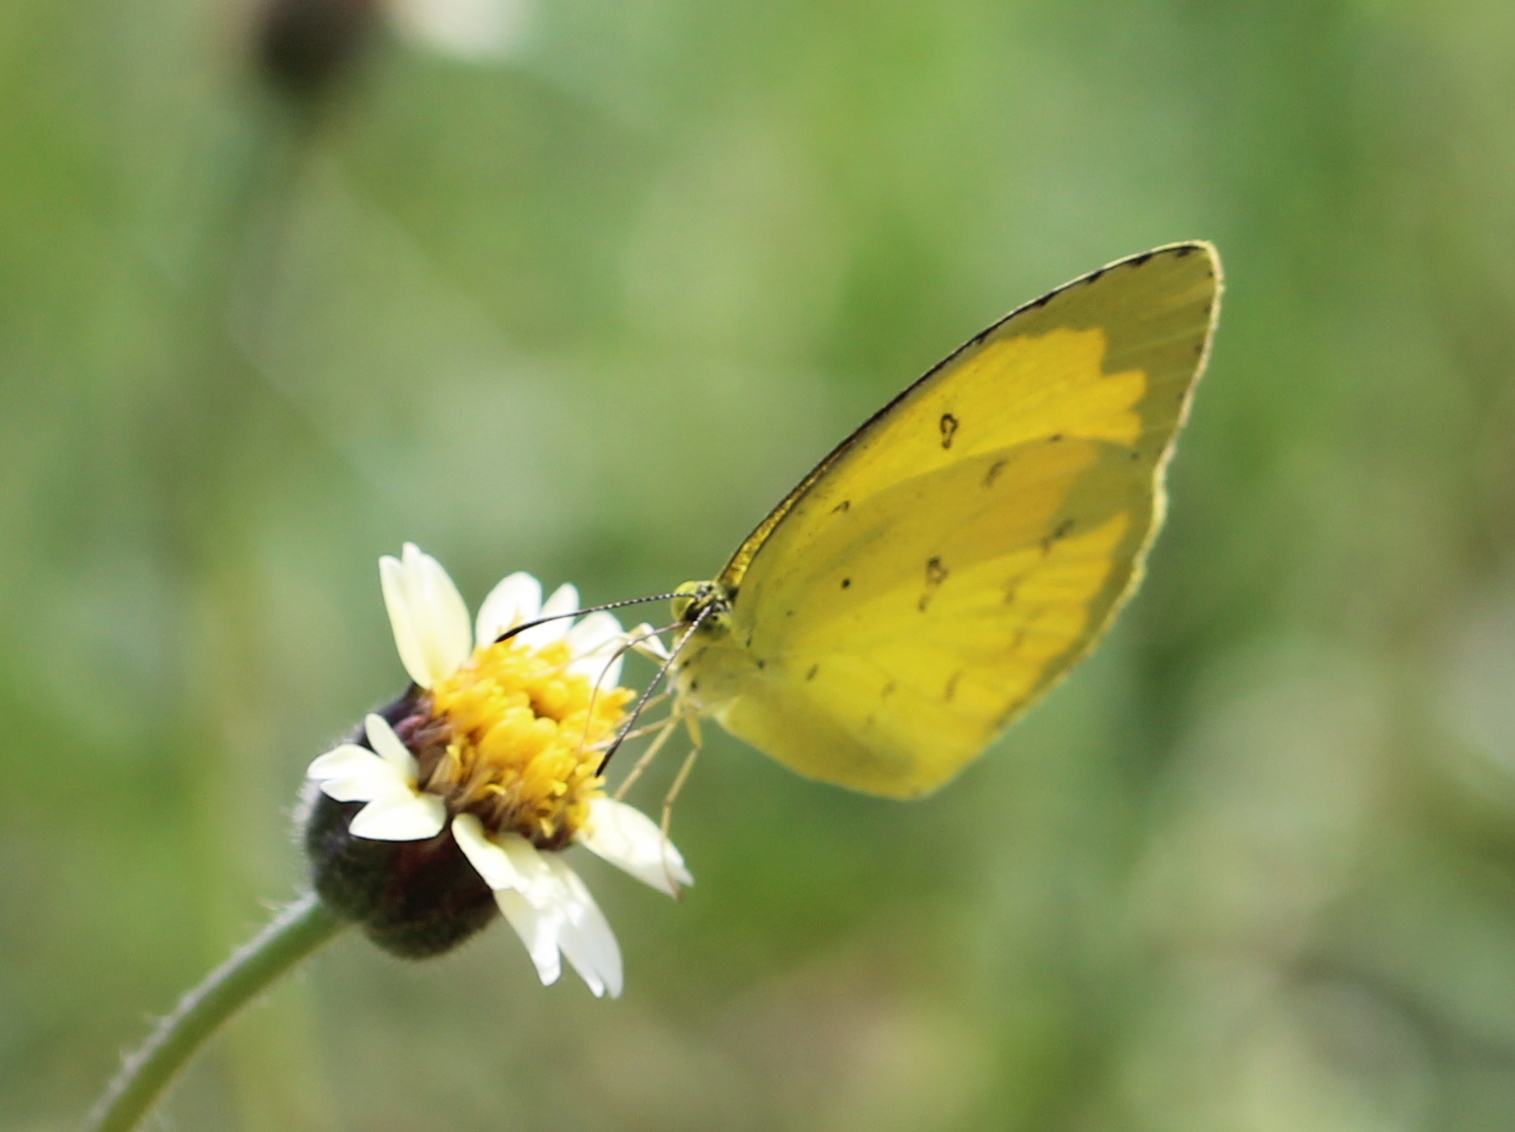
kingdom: Animalia
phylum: Arthropoda
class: Insecta
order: Lepidoptera
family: Pieridae
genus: Eurema
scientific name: Eurema hecabe
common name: Pale grass yellow
